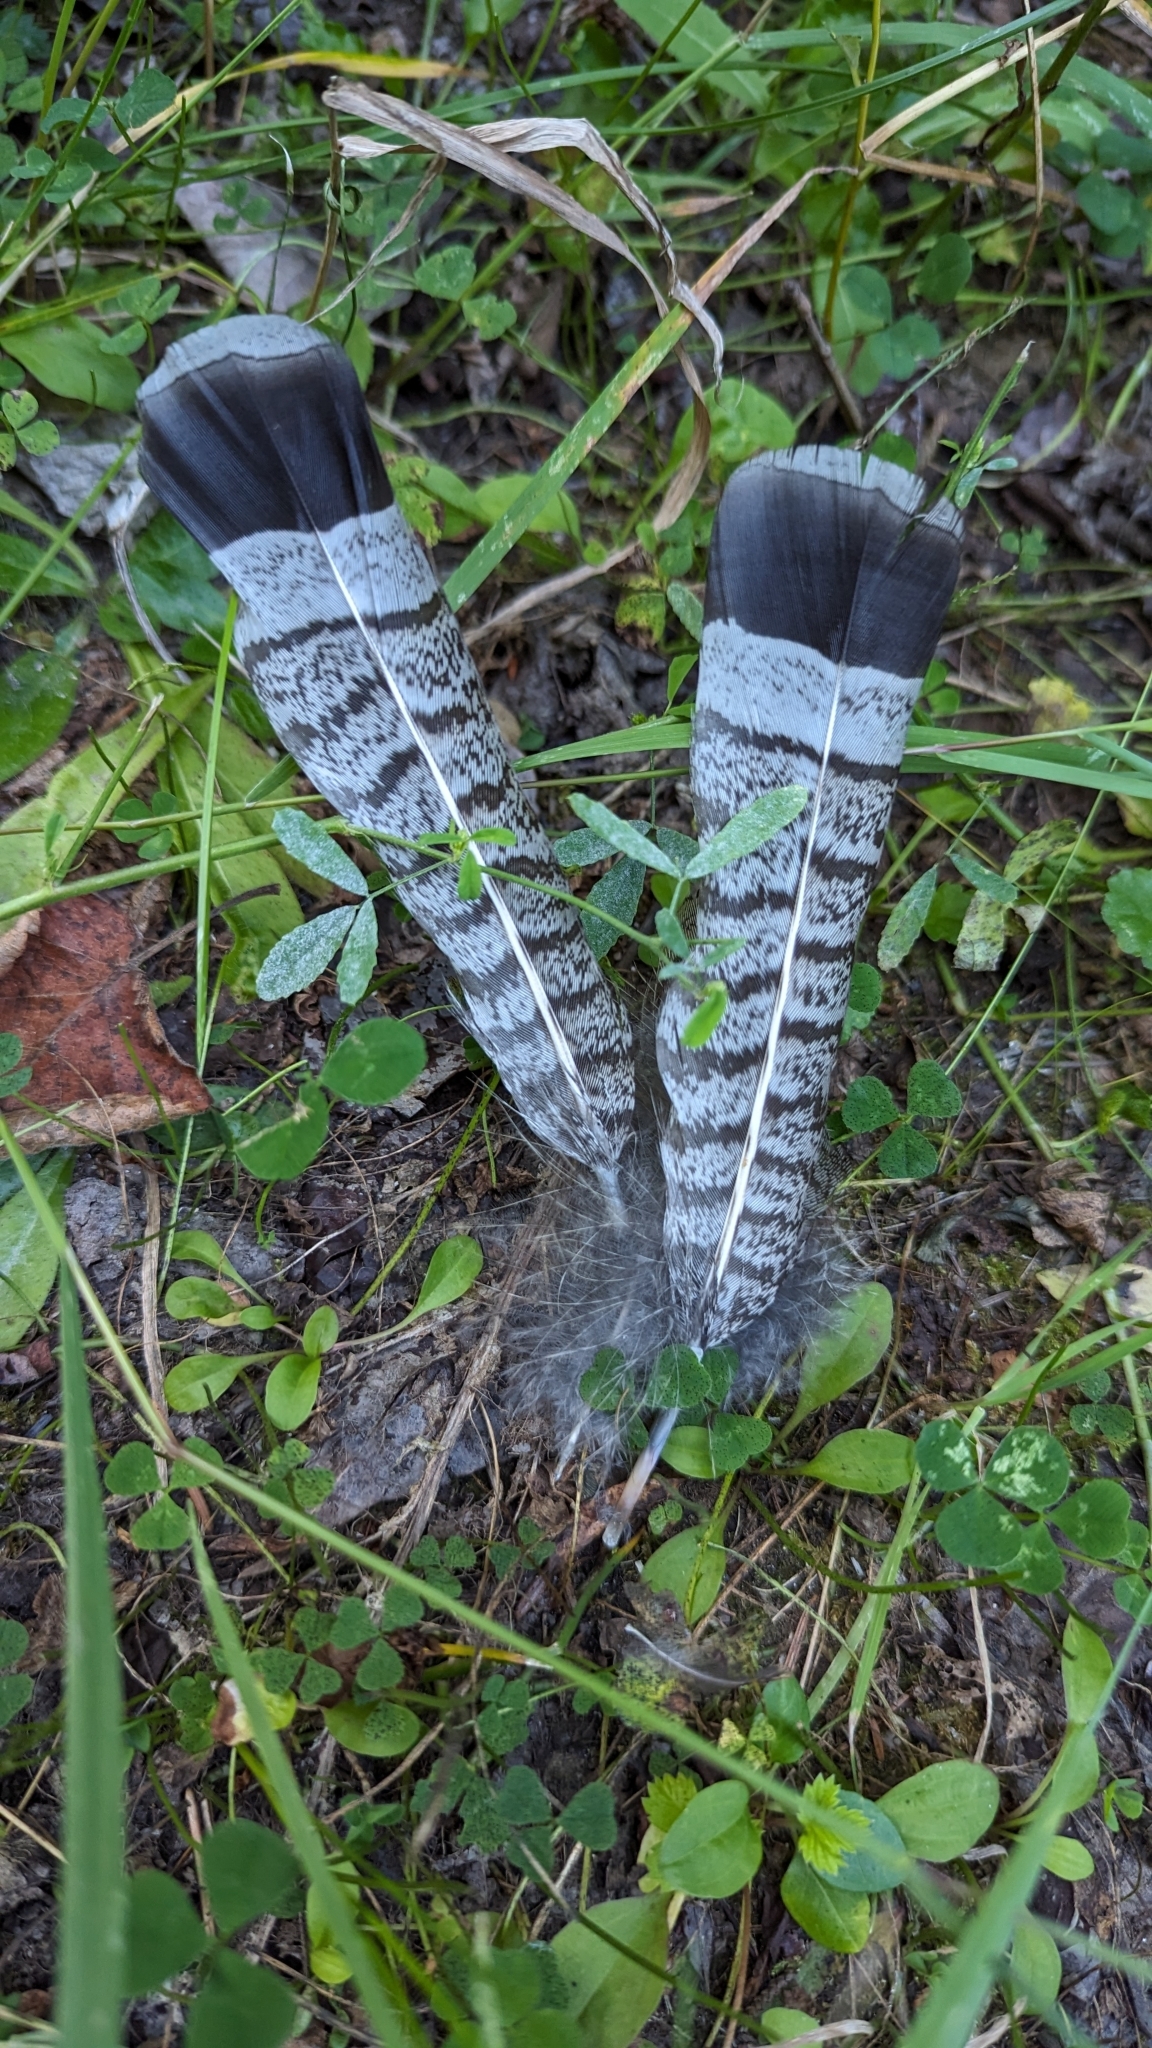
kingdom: Animalia
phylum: Chordata
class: Aves
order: Galliformes
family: Phasianidae
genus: Bonasa
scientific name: Bonasa umbellus
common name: Ruffed grouse
